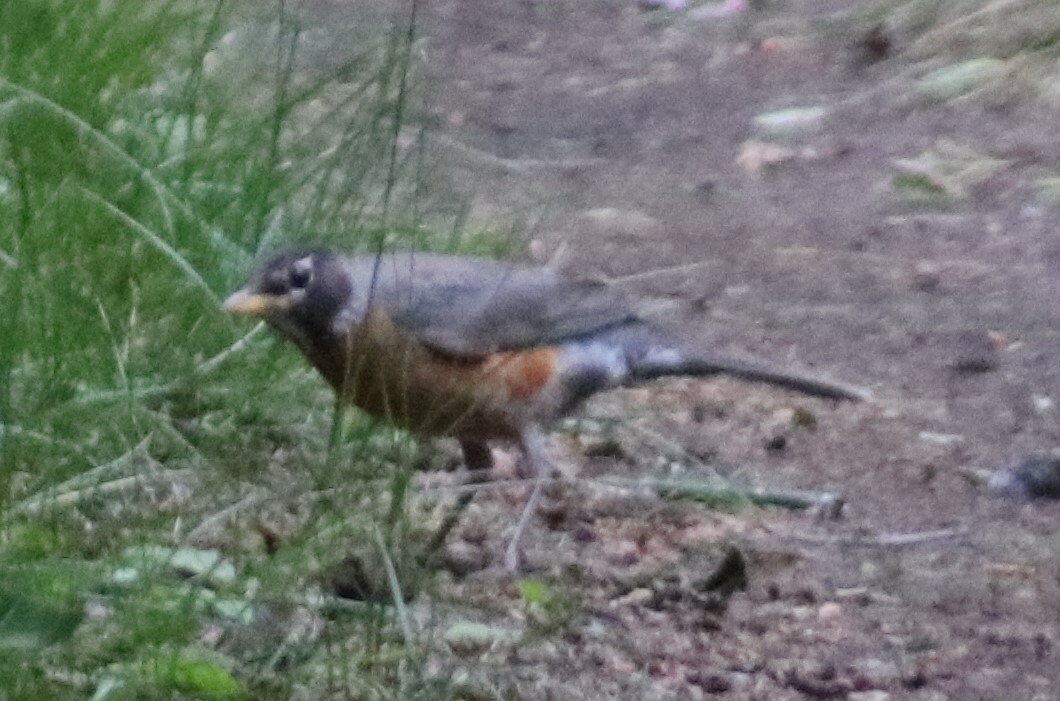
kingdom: Animalia
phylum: Chordata
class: Aves
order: Passeriformes
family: Turdidae
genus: Turdus
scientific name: Turdus migratorius
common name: American robin
